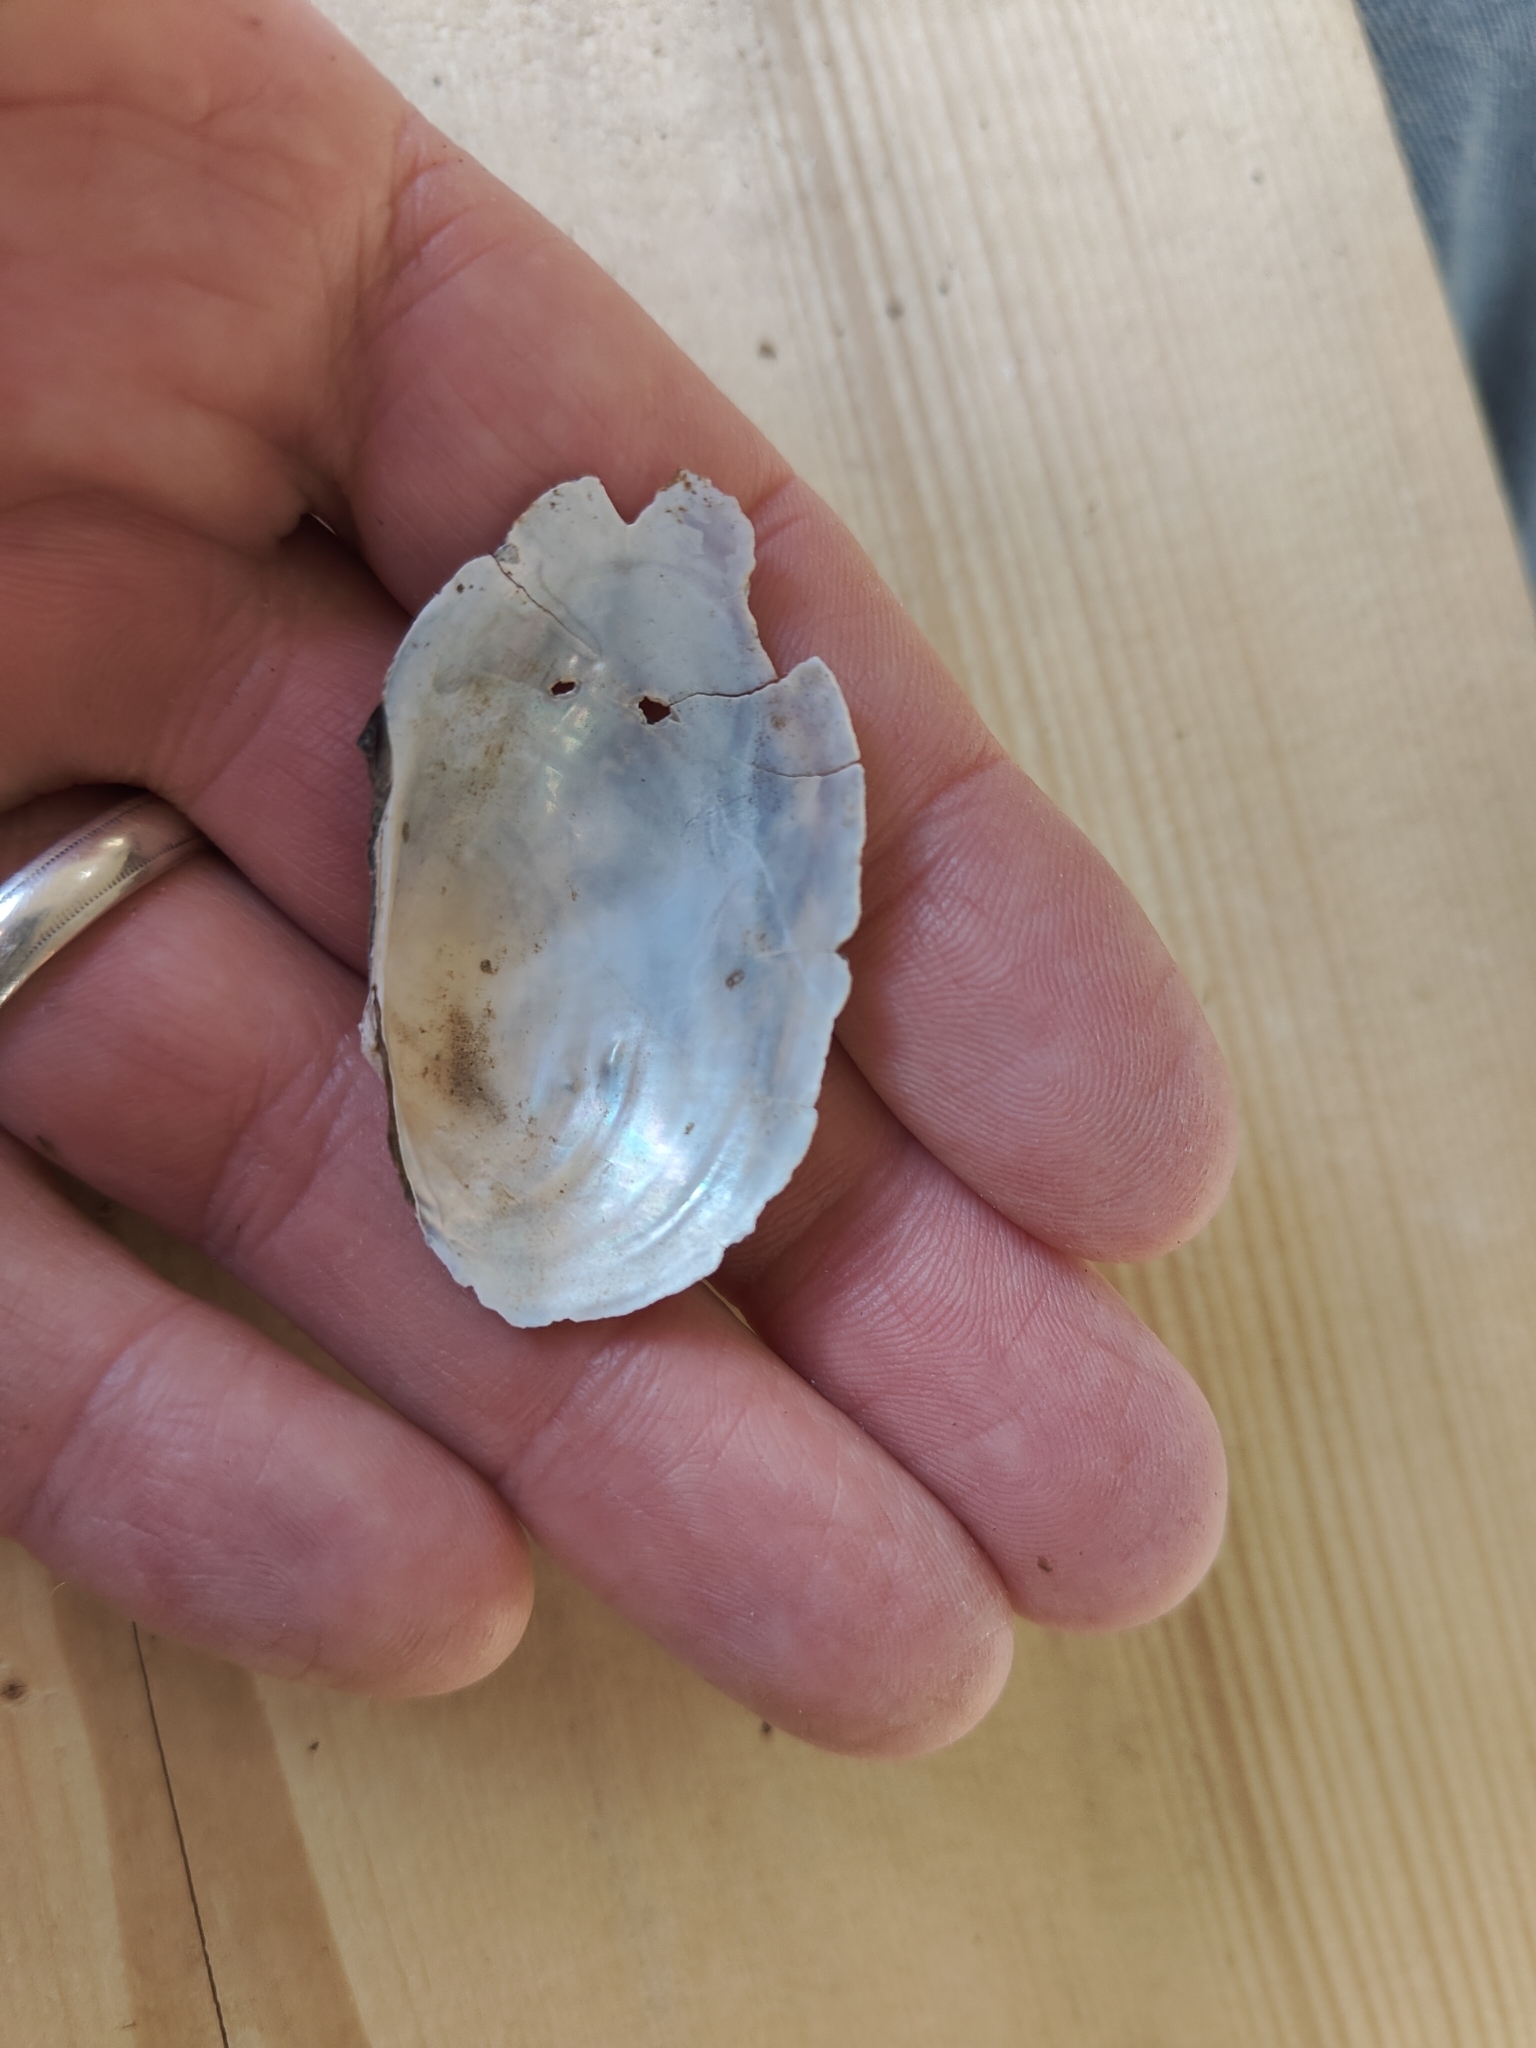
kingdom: Animalia
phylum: Mollusca
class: Bivalvia
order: Unionida
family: Unionidae
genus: Pyganodon
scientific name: Pyganodon grandis
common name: Giant floater
